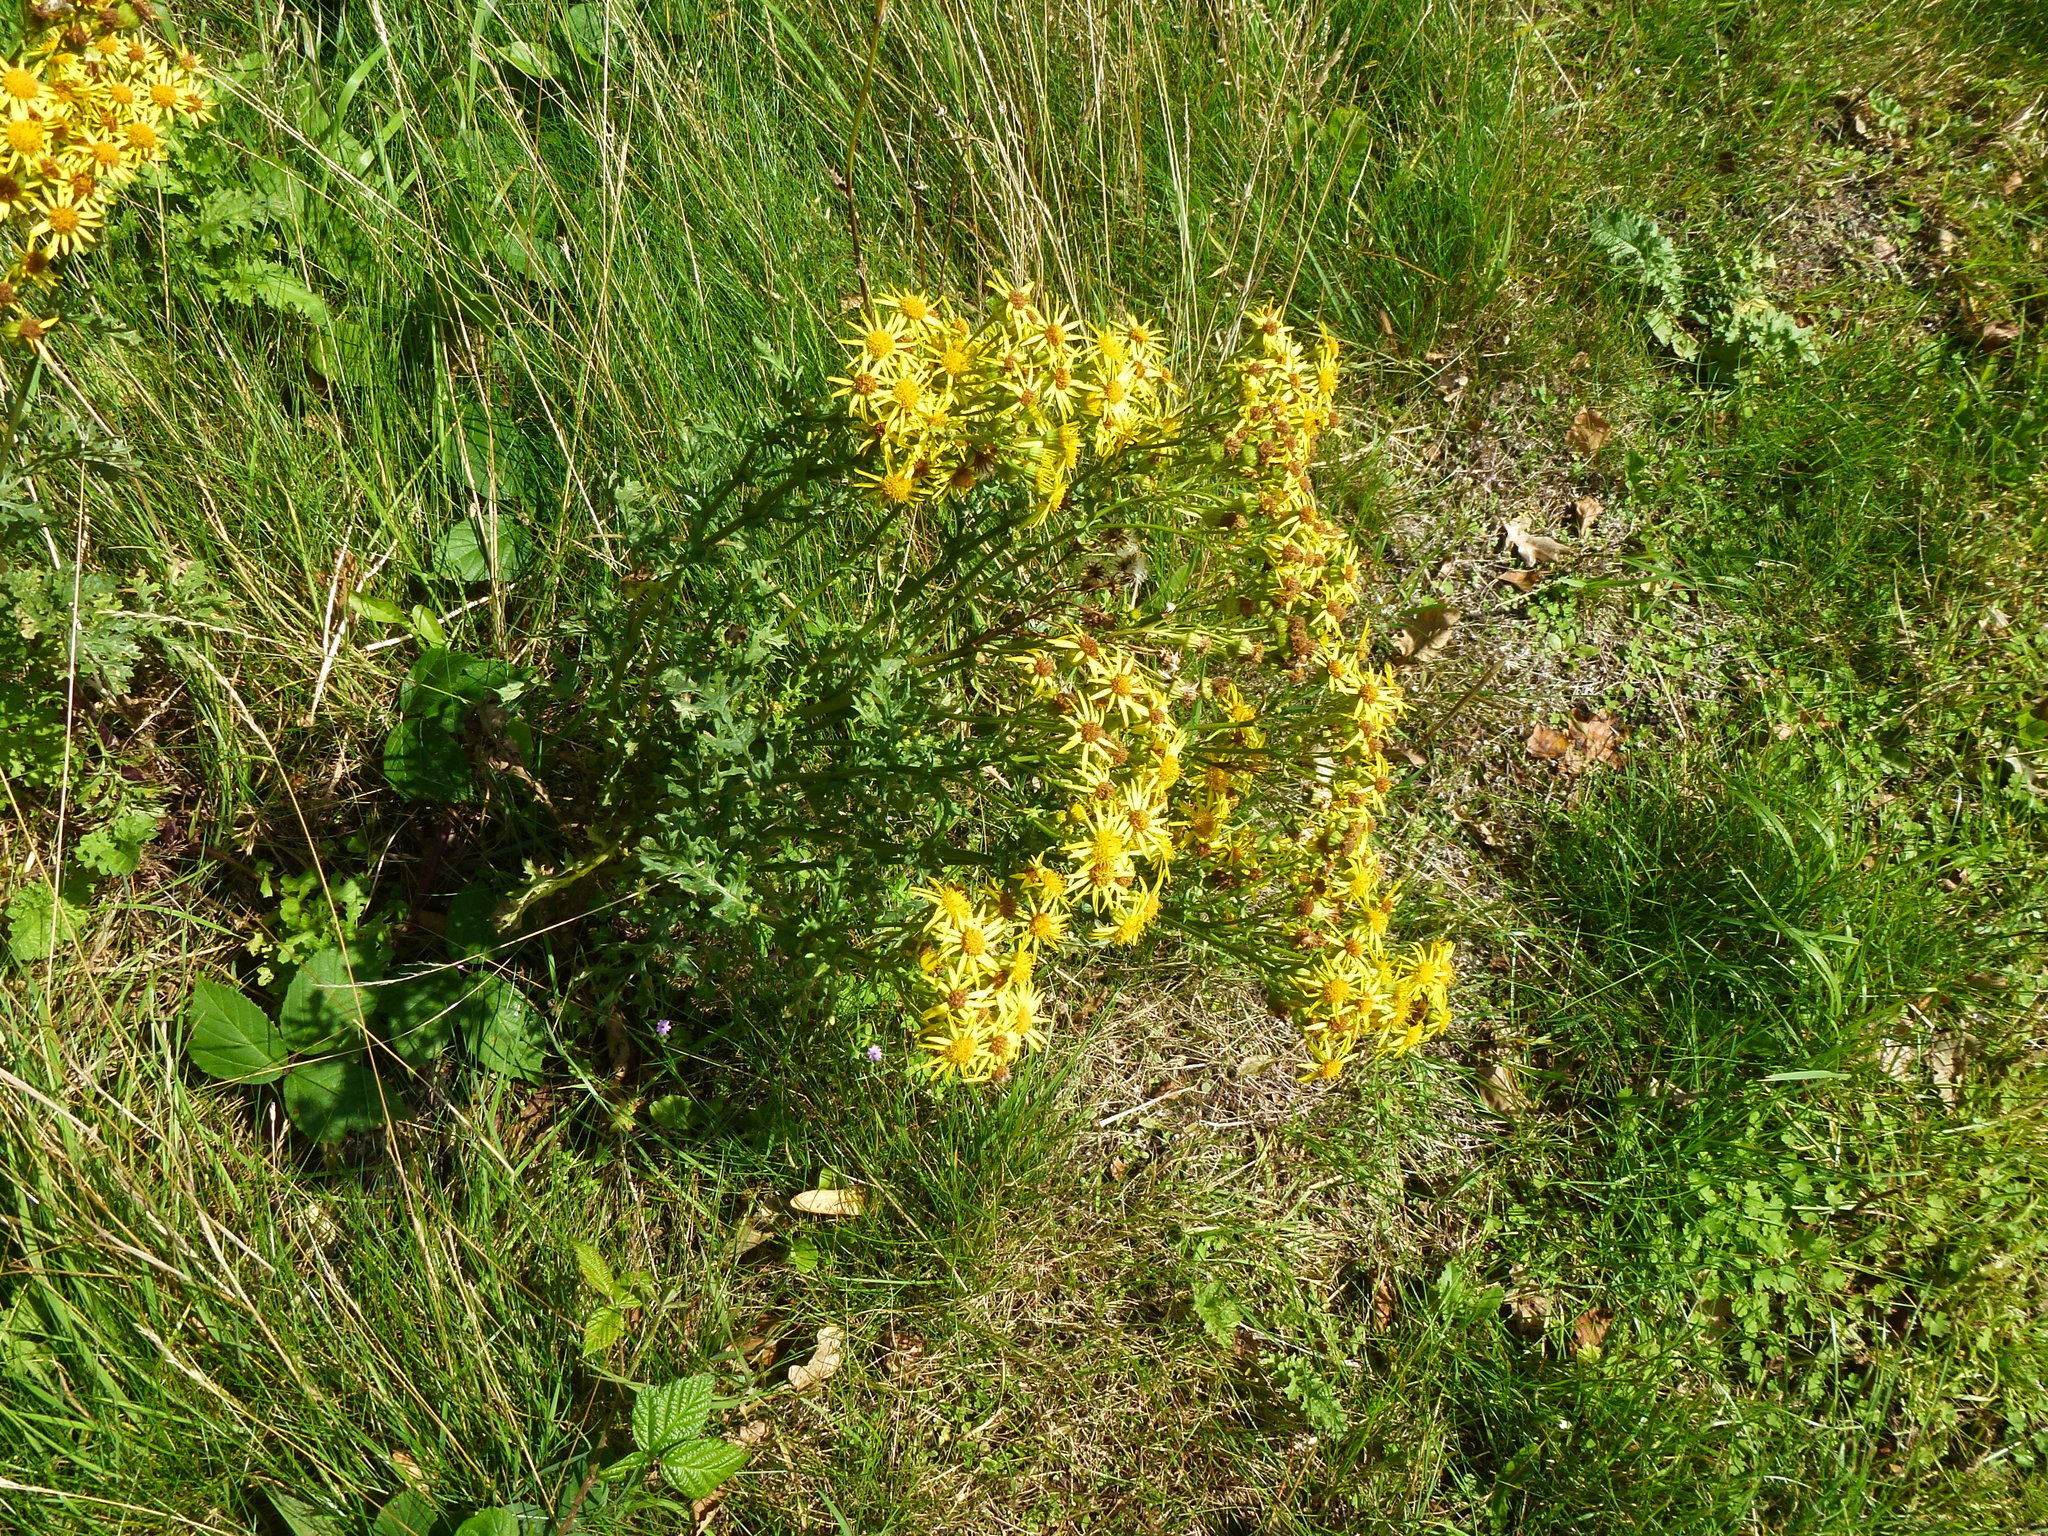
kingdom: Plantae
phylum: Tracheophyta
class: Magnoliopsida
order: Asterales
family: Asteraceae
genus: Jacobaea
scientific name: Jacobaea vulgaris
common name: Stinking willie
